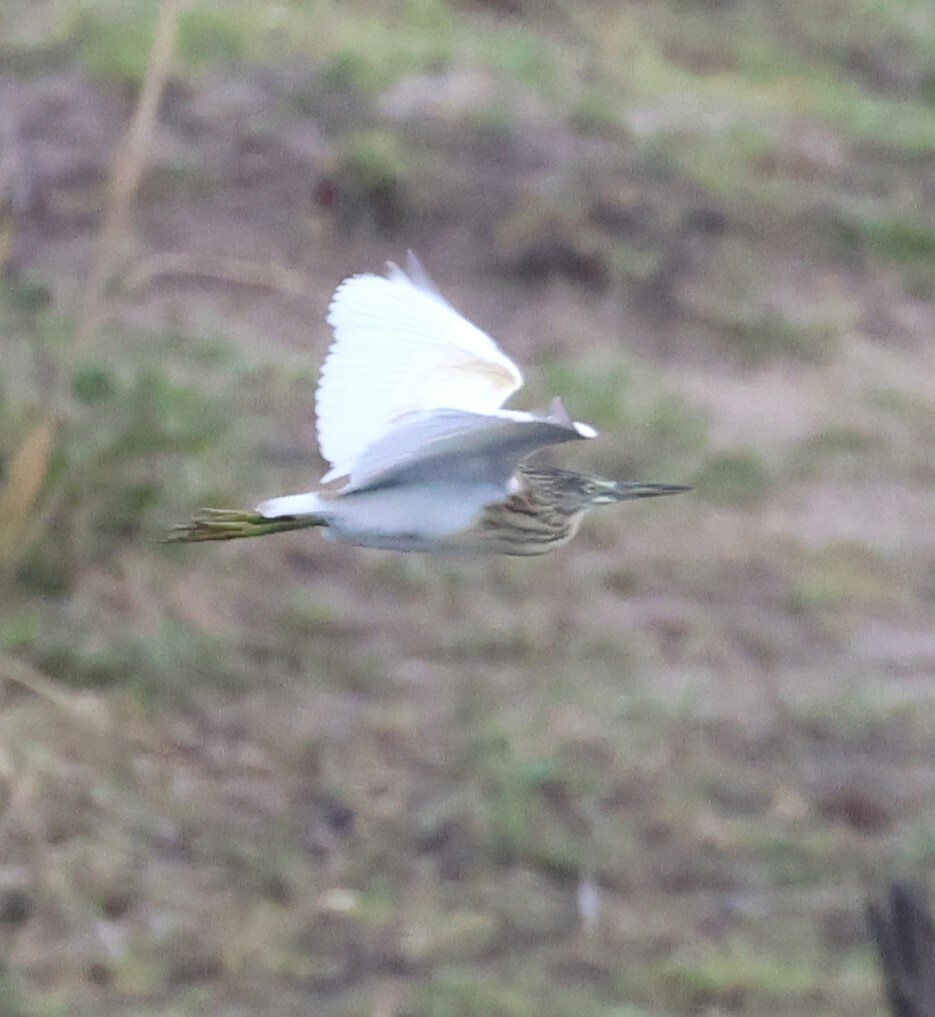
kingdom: Animalia
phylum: Chordata
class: Aves
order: Pelecaniformes
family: Ardeidae
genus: Ardeola
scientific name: Ardeola ralloides
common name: Squacco heron
